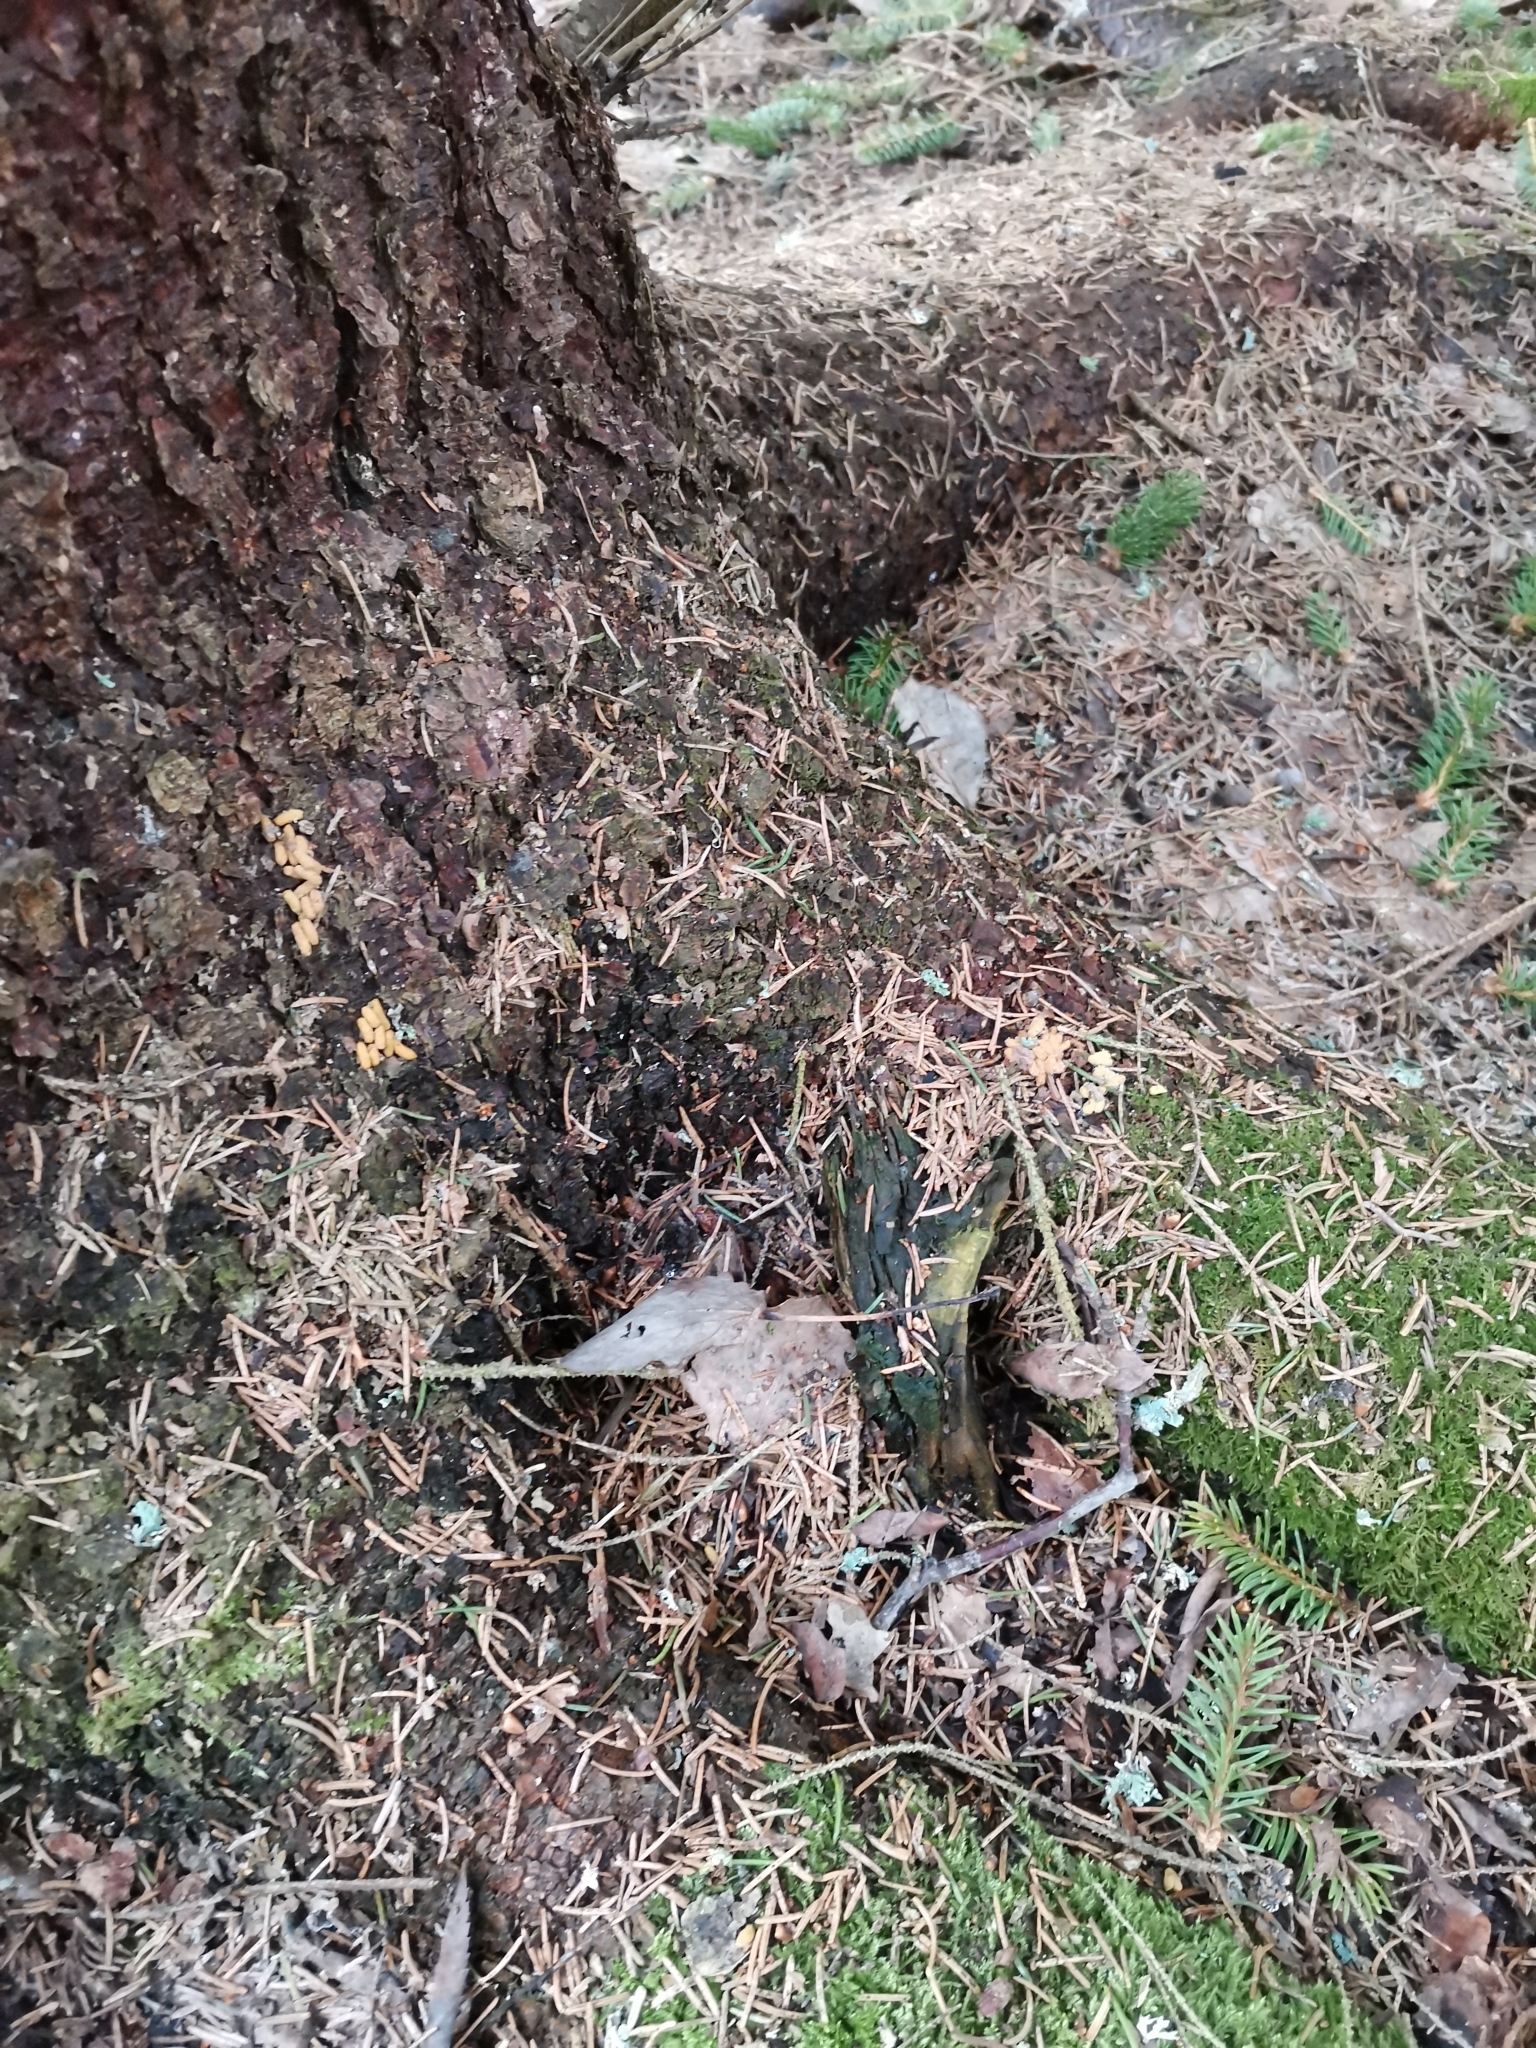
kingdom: Animalia
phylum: Chordata
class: Mammalia
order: Rodentia
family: Sciuridae
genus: Pteromys
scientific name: Pteromys volans
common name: Siberian flying squirrel
